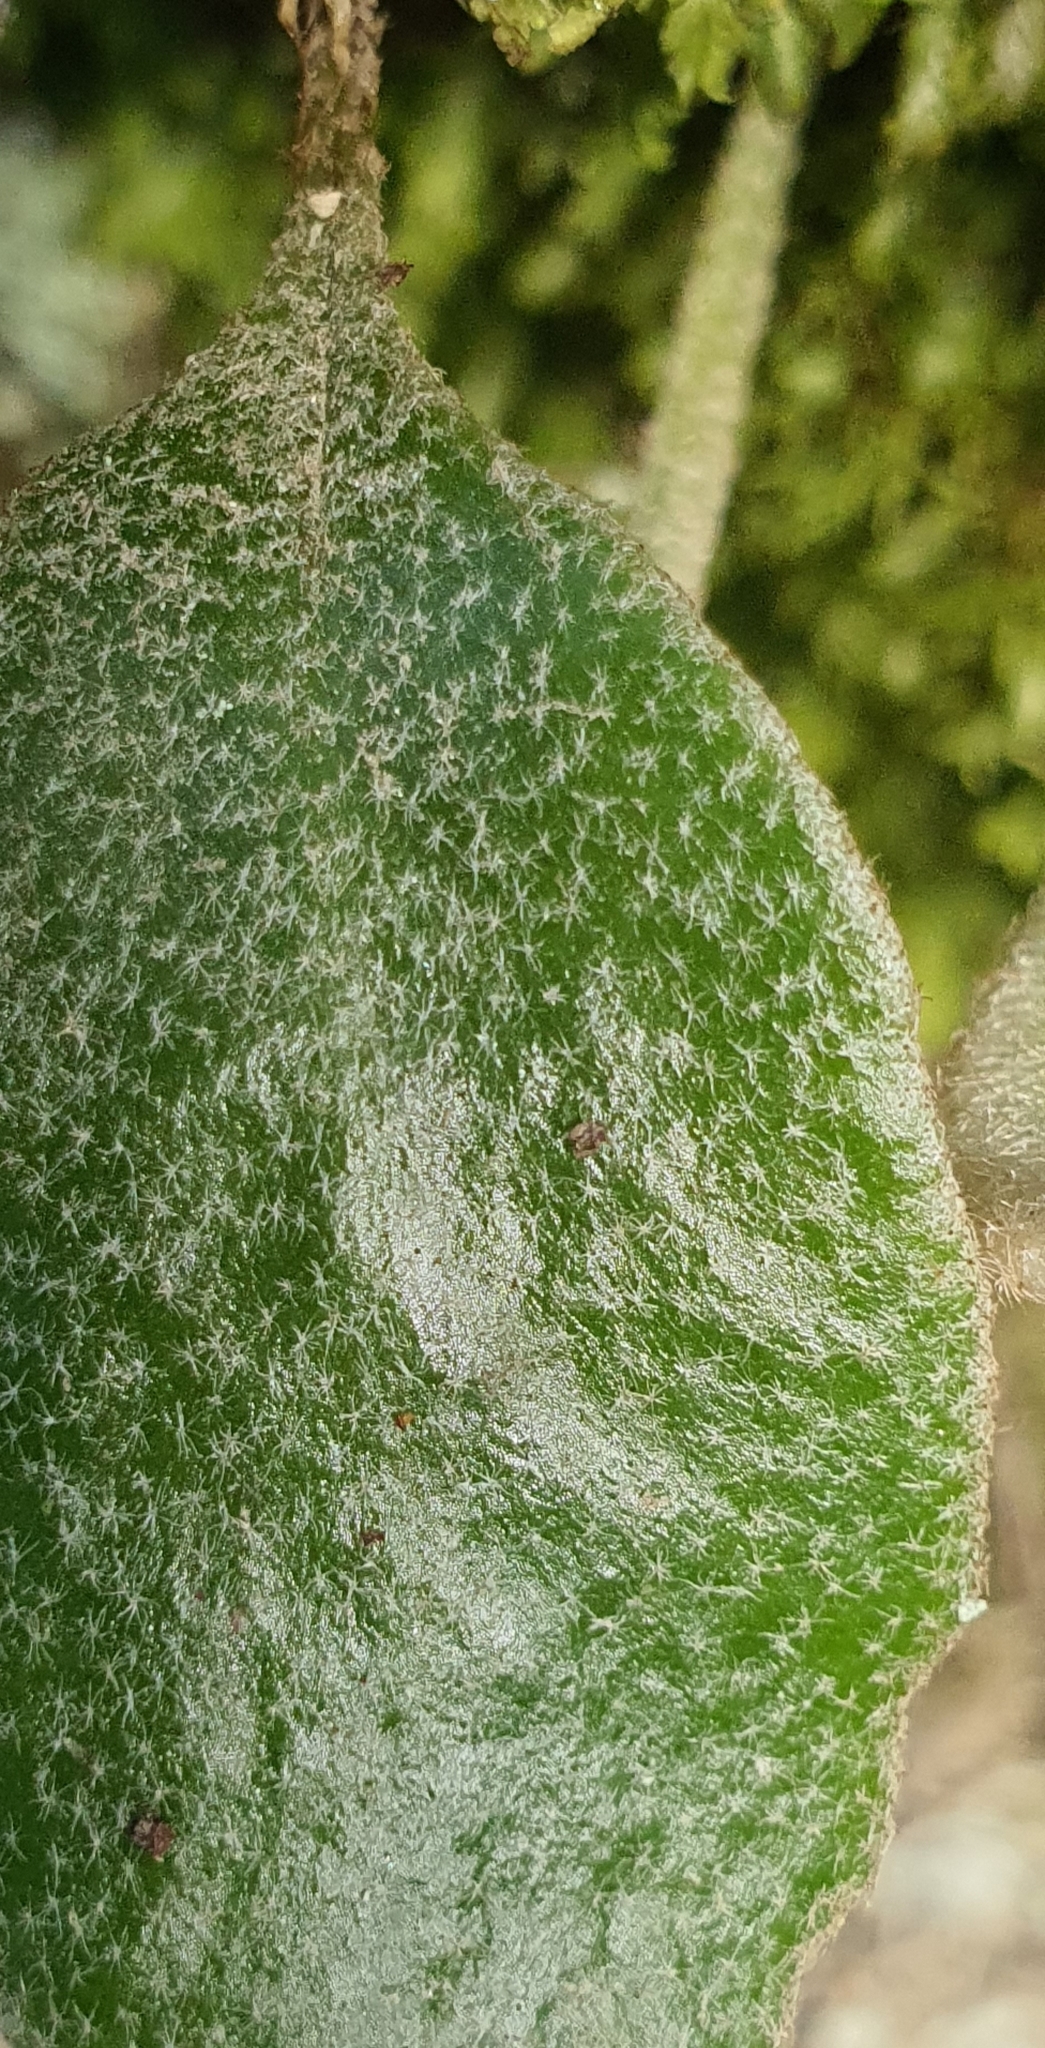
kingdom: Plantae
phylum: Tracheophyta
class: Polypodiopsida
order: Polypodiales
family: Polypodiaceae
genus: Pyrrosia
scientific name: Pyrrosia eleagnifolia
